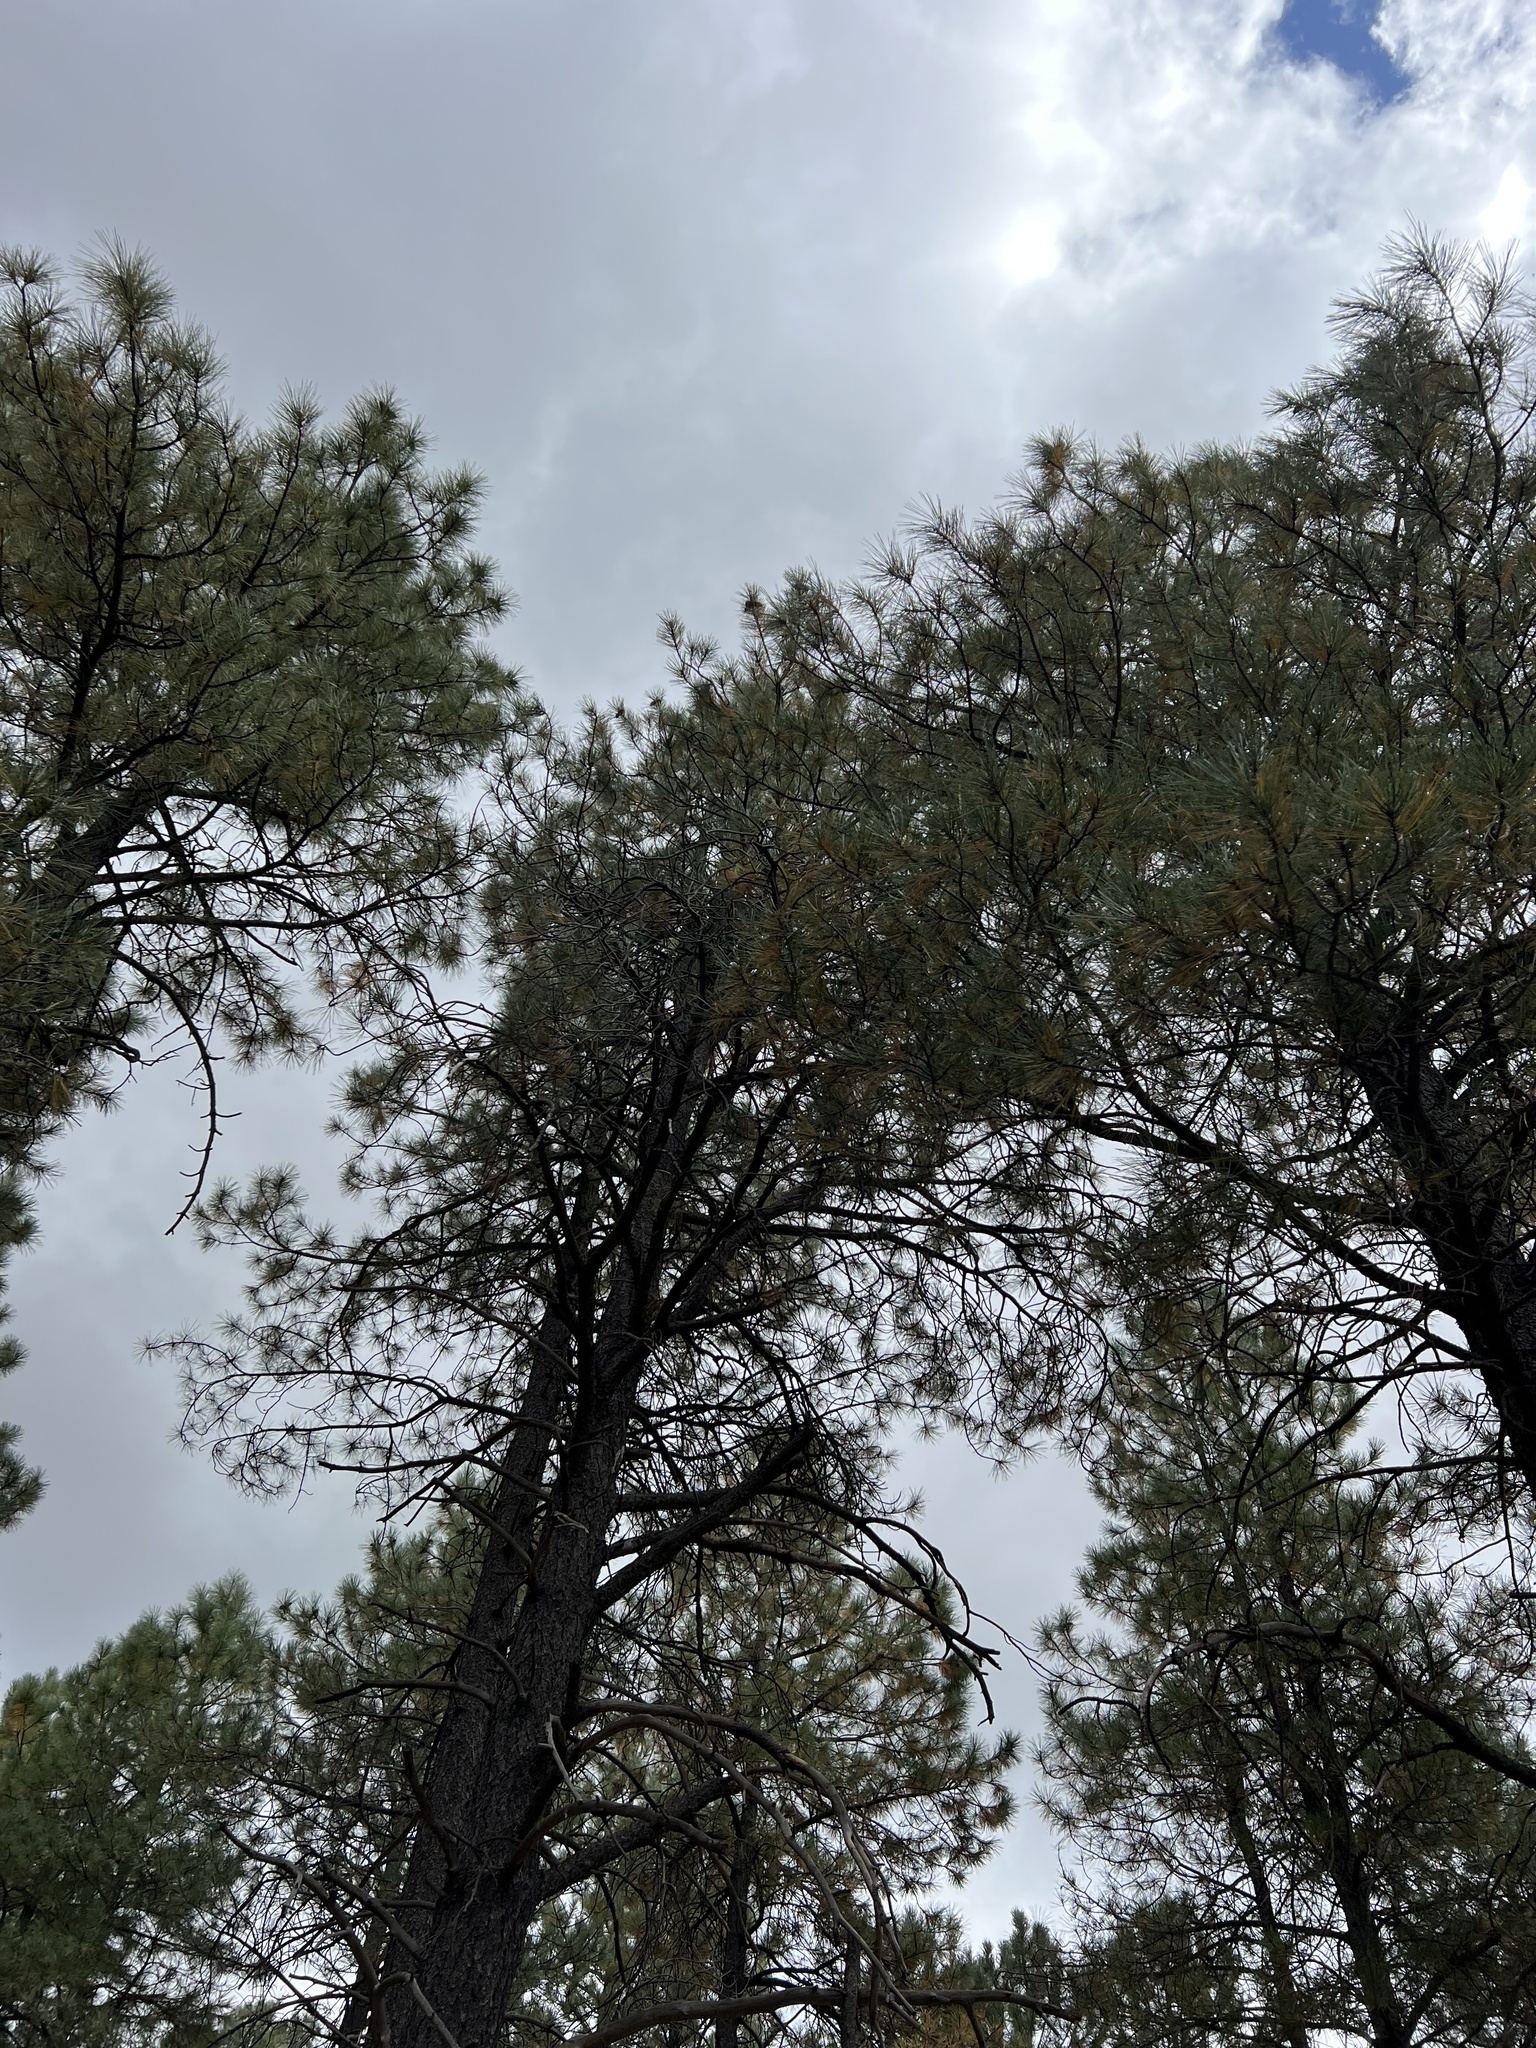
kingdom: Plantae
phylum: Tracheophyta
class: Pinopsida
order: Pinales
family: Pinaceae
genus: Pinus
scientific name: Pinus ponderosa
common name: Western yellow-pine
